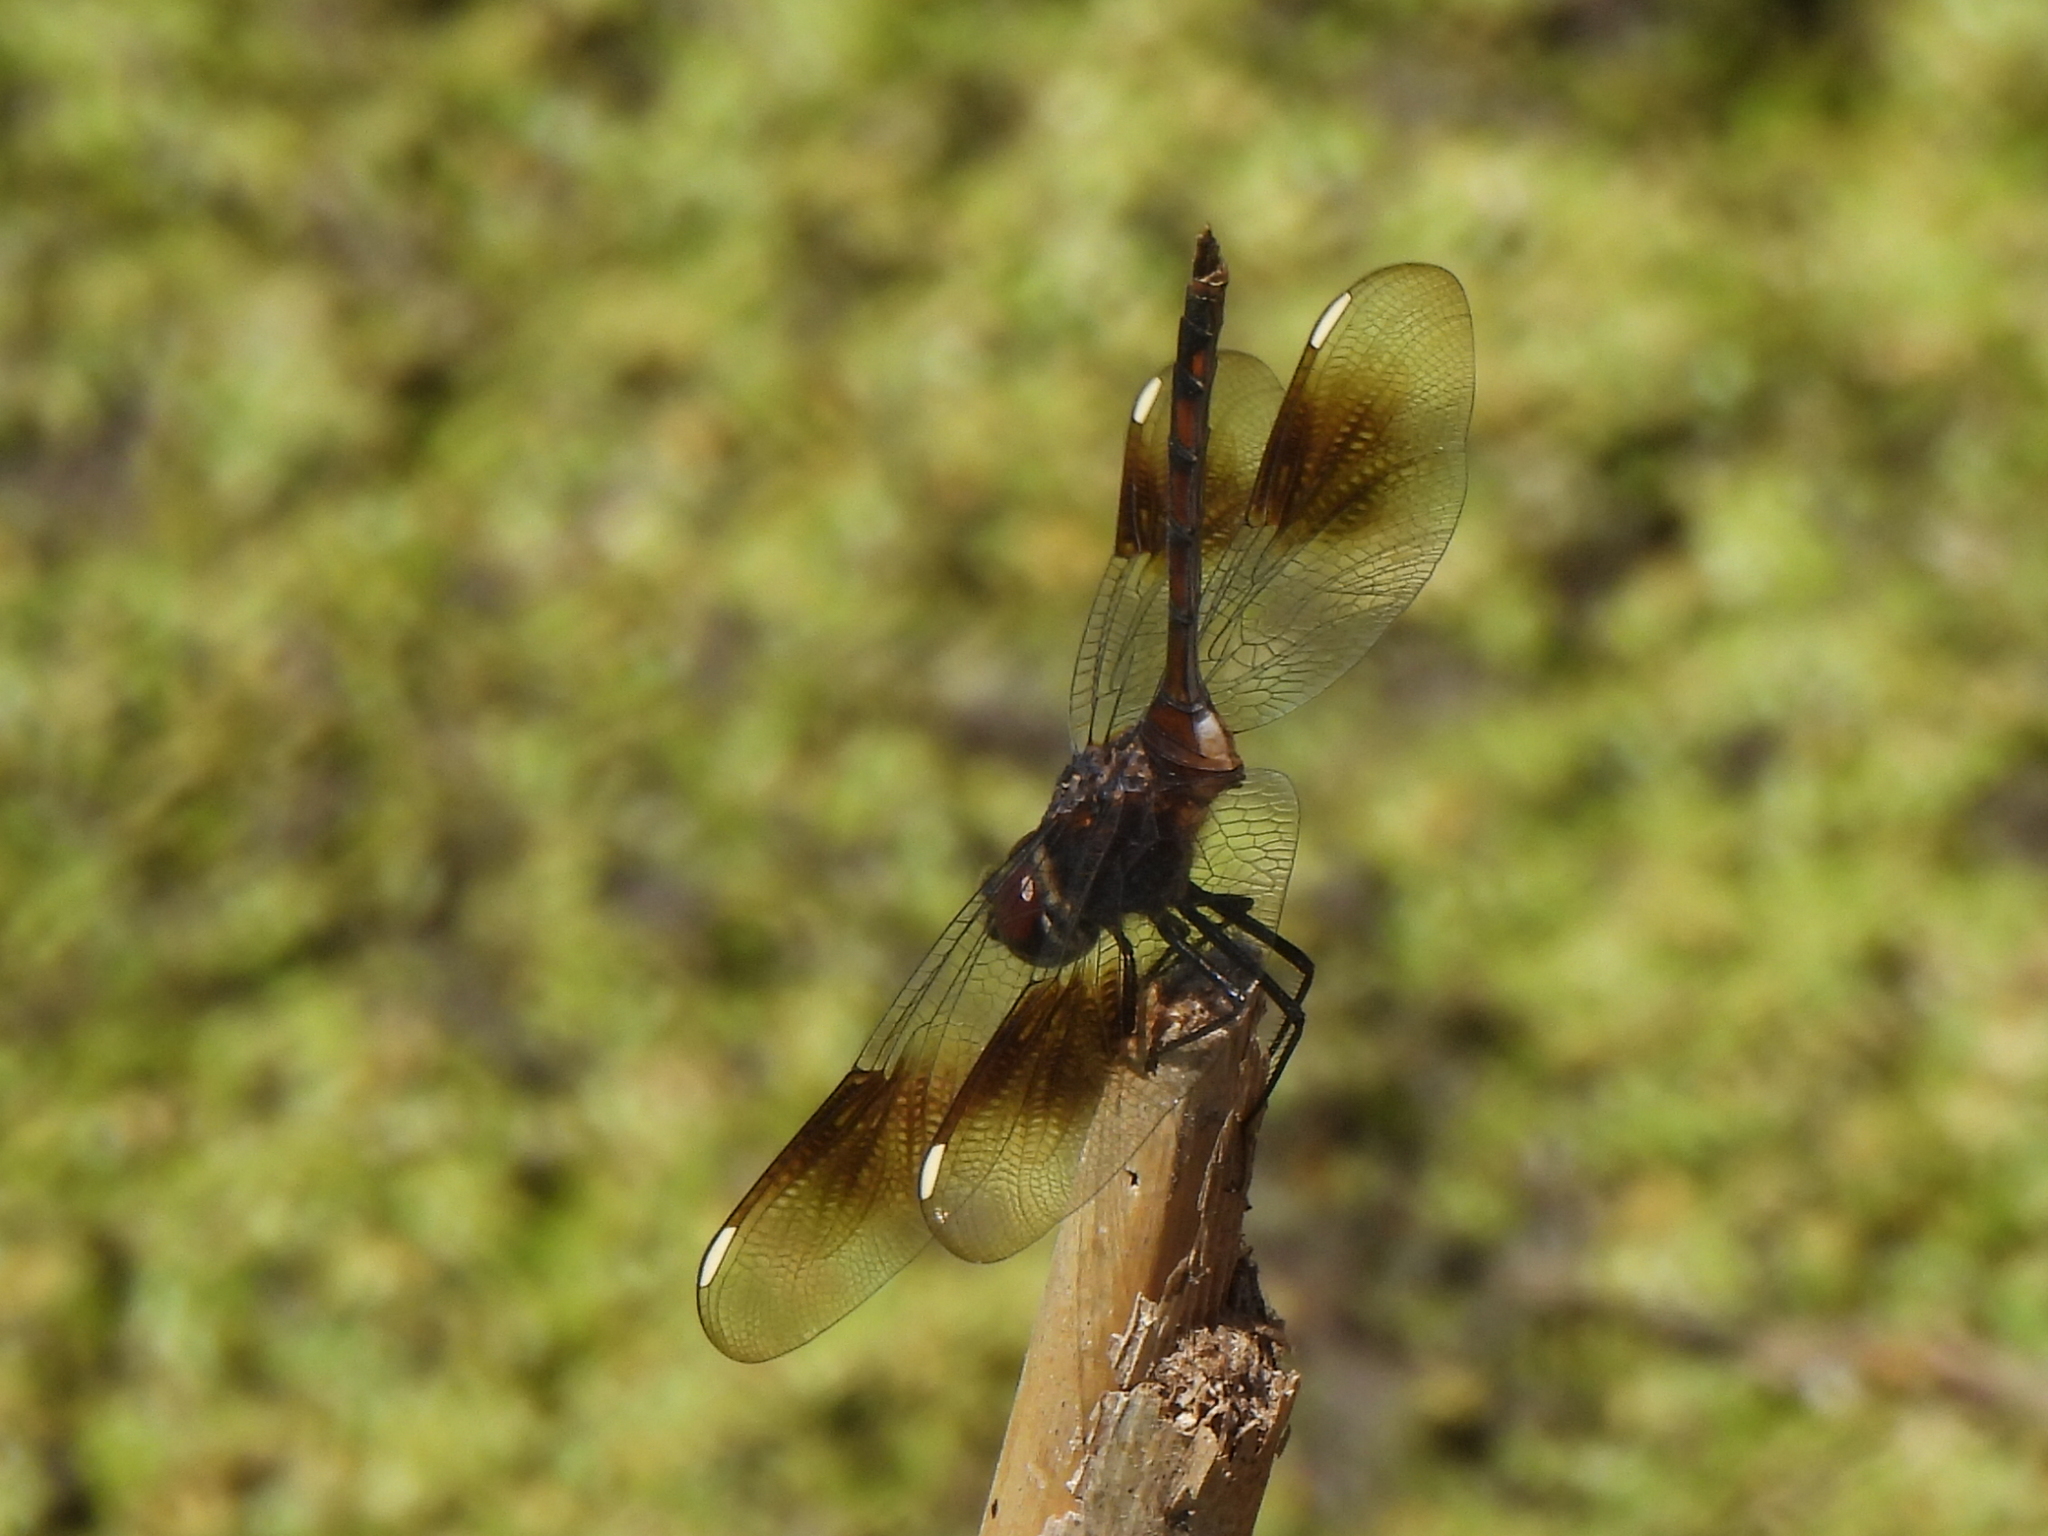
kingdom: Animalia
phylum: Arthropoda
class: Insecta
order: Odonata
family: Libellulidae
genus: Brachymesia
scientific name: Brachymesia gravida
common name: Four-spotted pennant
